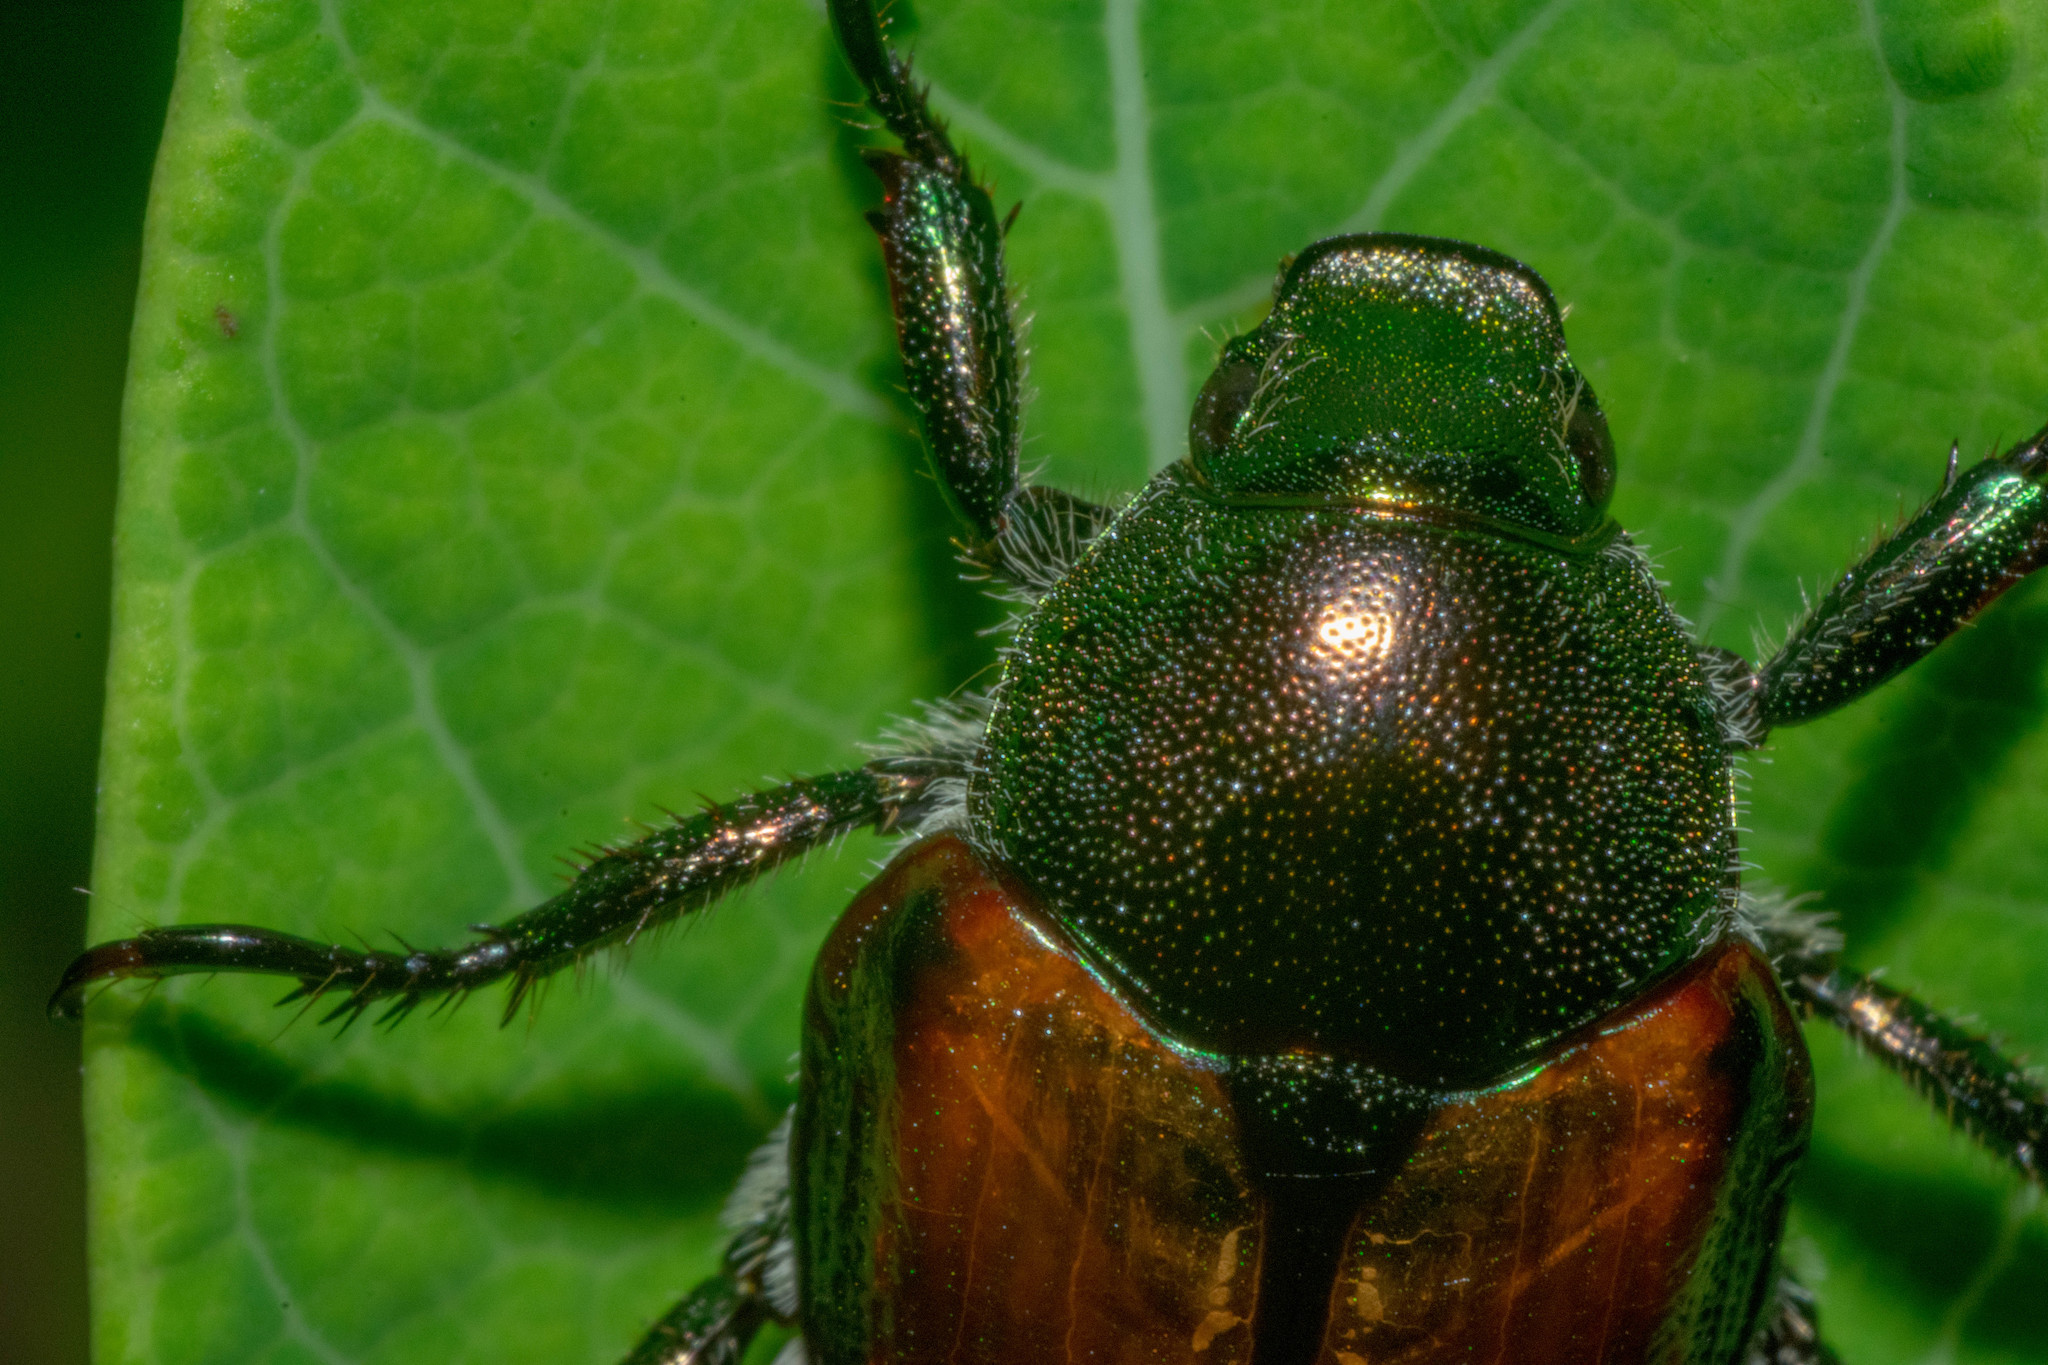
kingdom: Animalia
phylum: Arthropoda
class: Insecta
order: Coleoptera
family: Scarabaeidae
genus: Popillia
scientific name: Popillia japonica
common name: Japanese beetle
